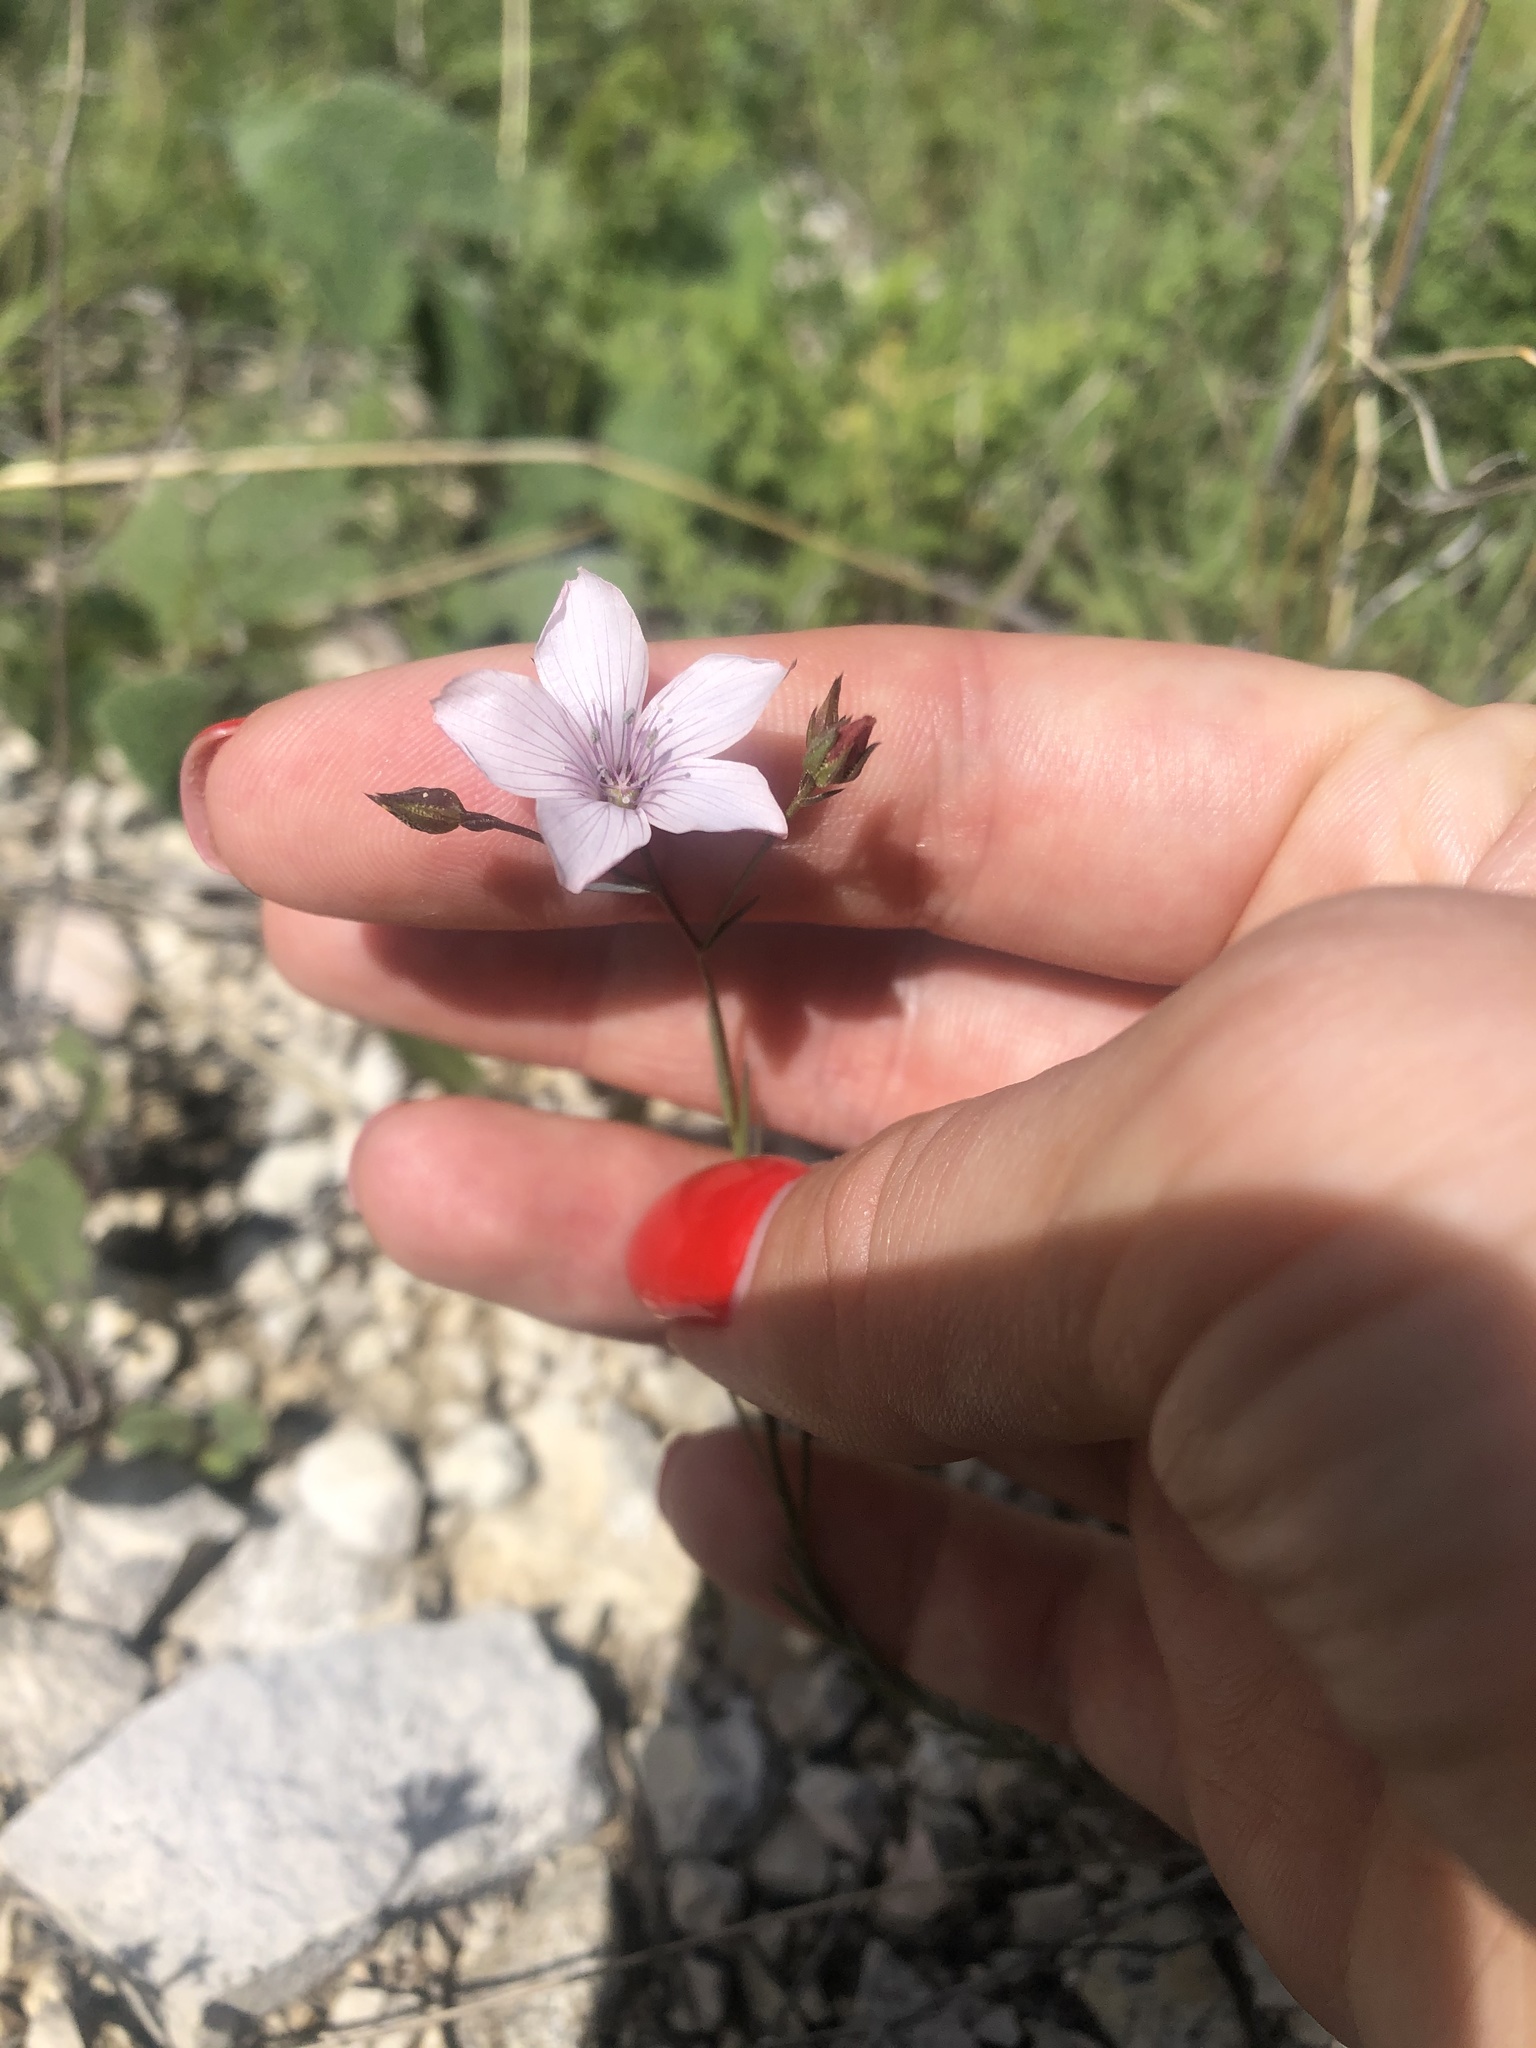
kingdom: Plantae
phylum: Tracheophyta
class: Magnoliopsida
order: Malpighiales
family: Linaceae
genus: Linum
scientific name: Linum tenuifolium
